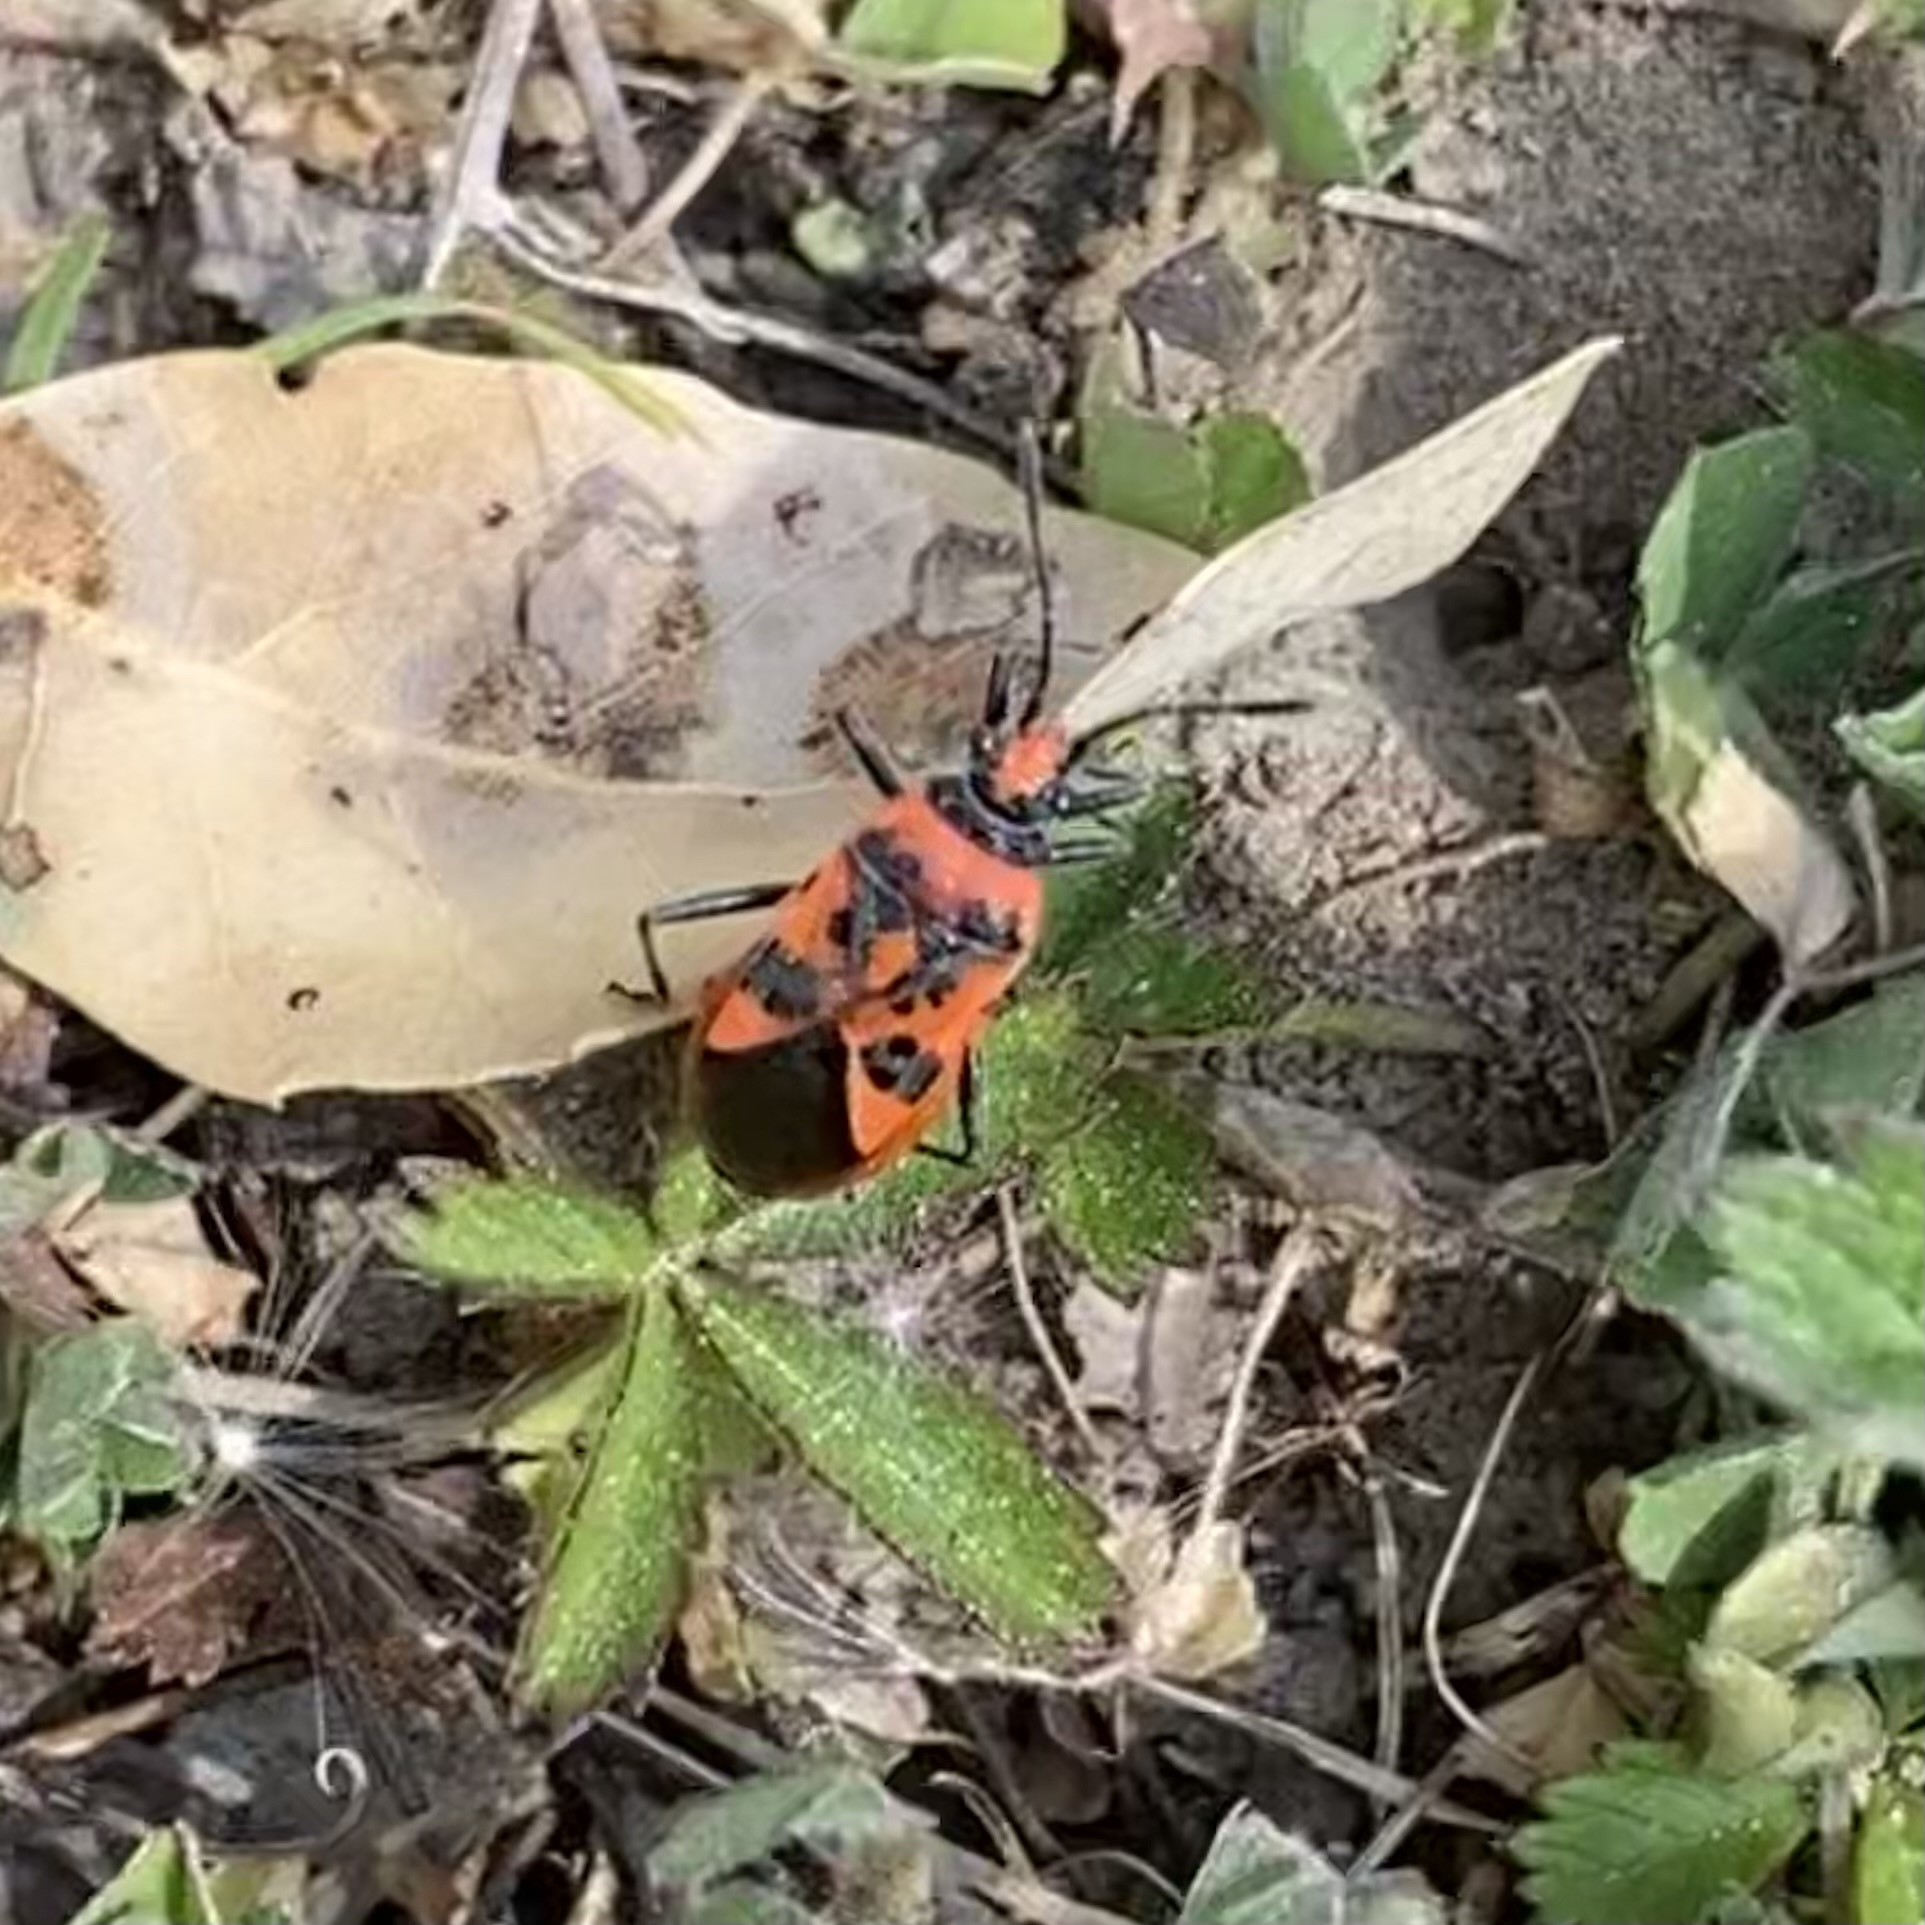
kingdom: Animalia
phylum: Arthropoda
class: Insecta
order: Hemiptera
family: Rhopalidae
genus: Corizus
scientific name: Corizus hyoscyami
